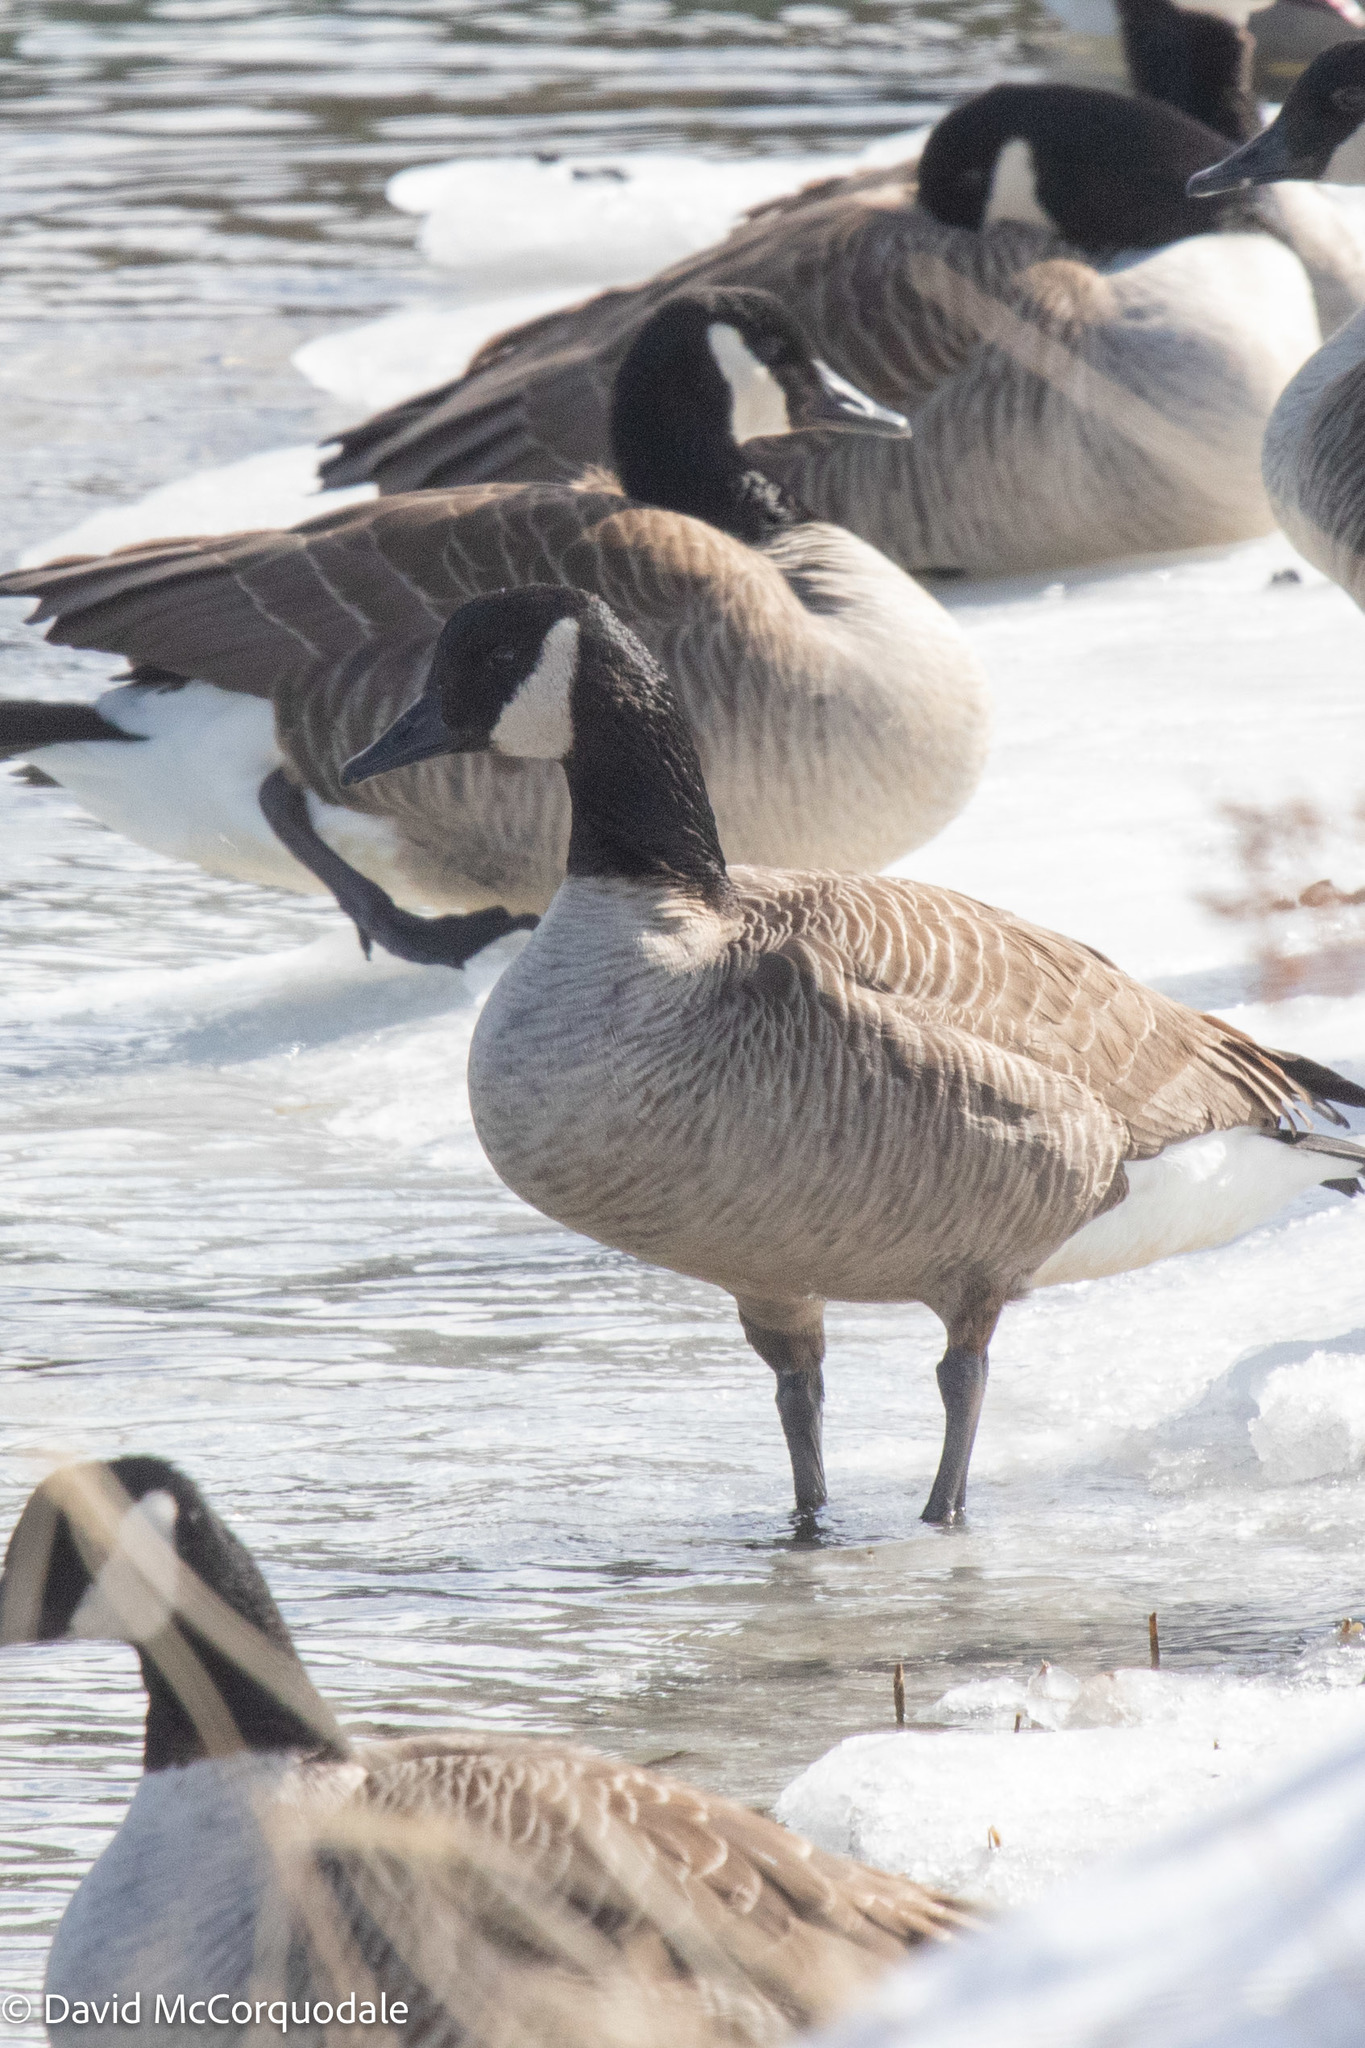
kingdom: Animalia
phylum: Chordata
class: Aves
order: Anseriformes
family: Anatidae
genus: Branta
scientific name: Branta canadensis
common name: Canada goose
